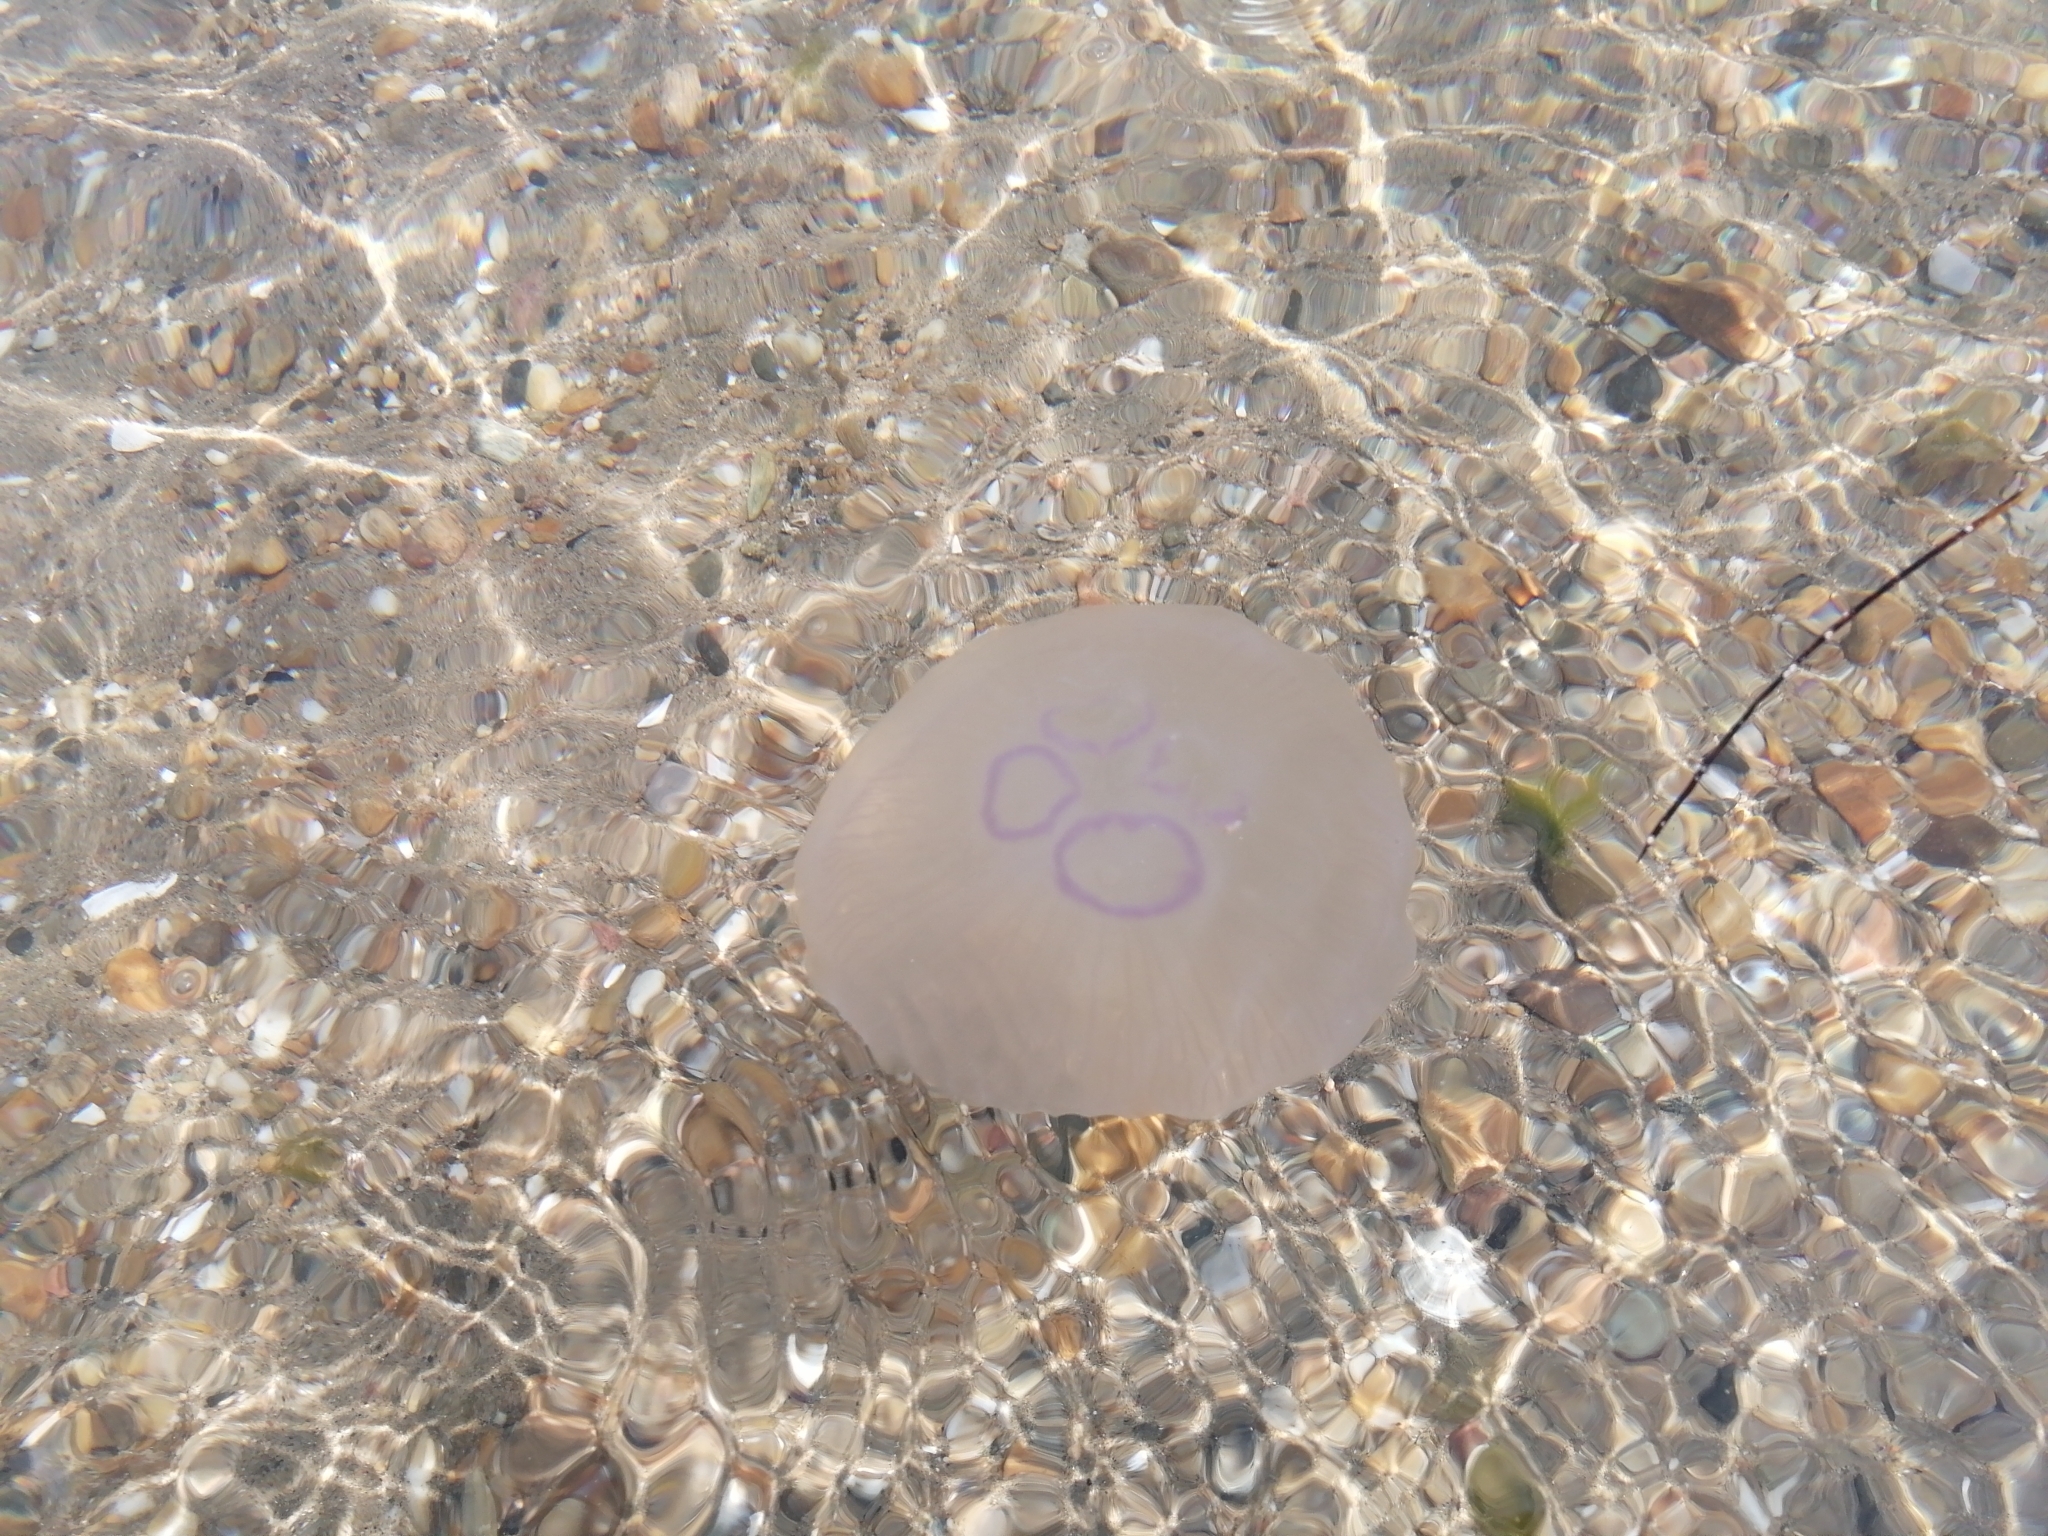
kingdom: Animalia
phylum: Cnidaria
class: Scyphozoa
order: Semaeostomeae
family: Ulmaridae
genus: Aurelia
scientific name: Aurelia
